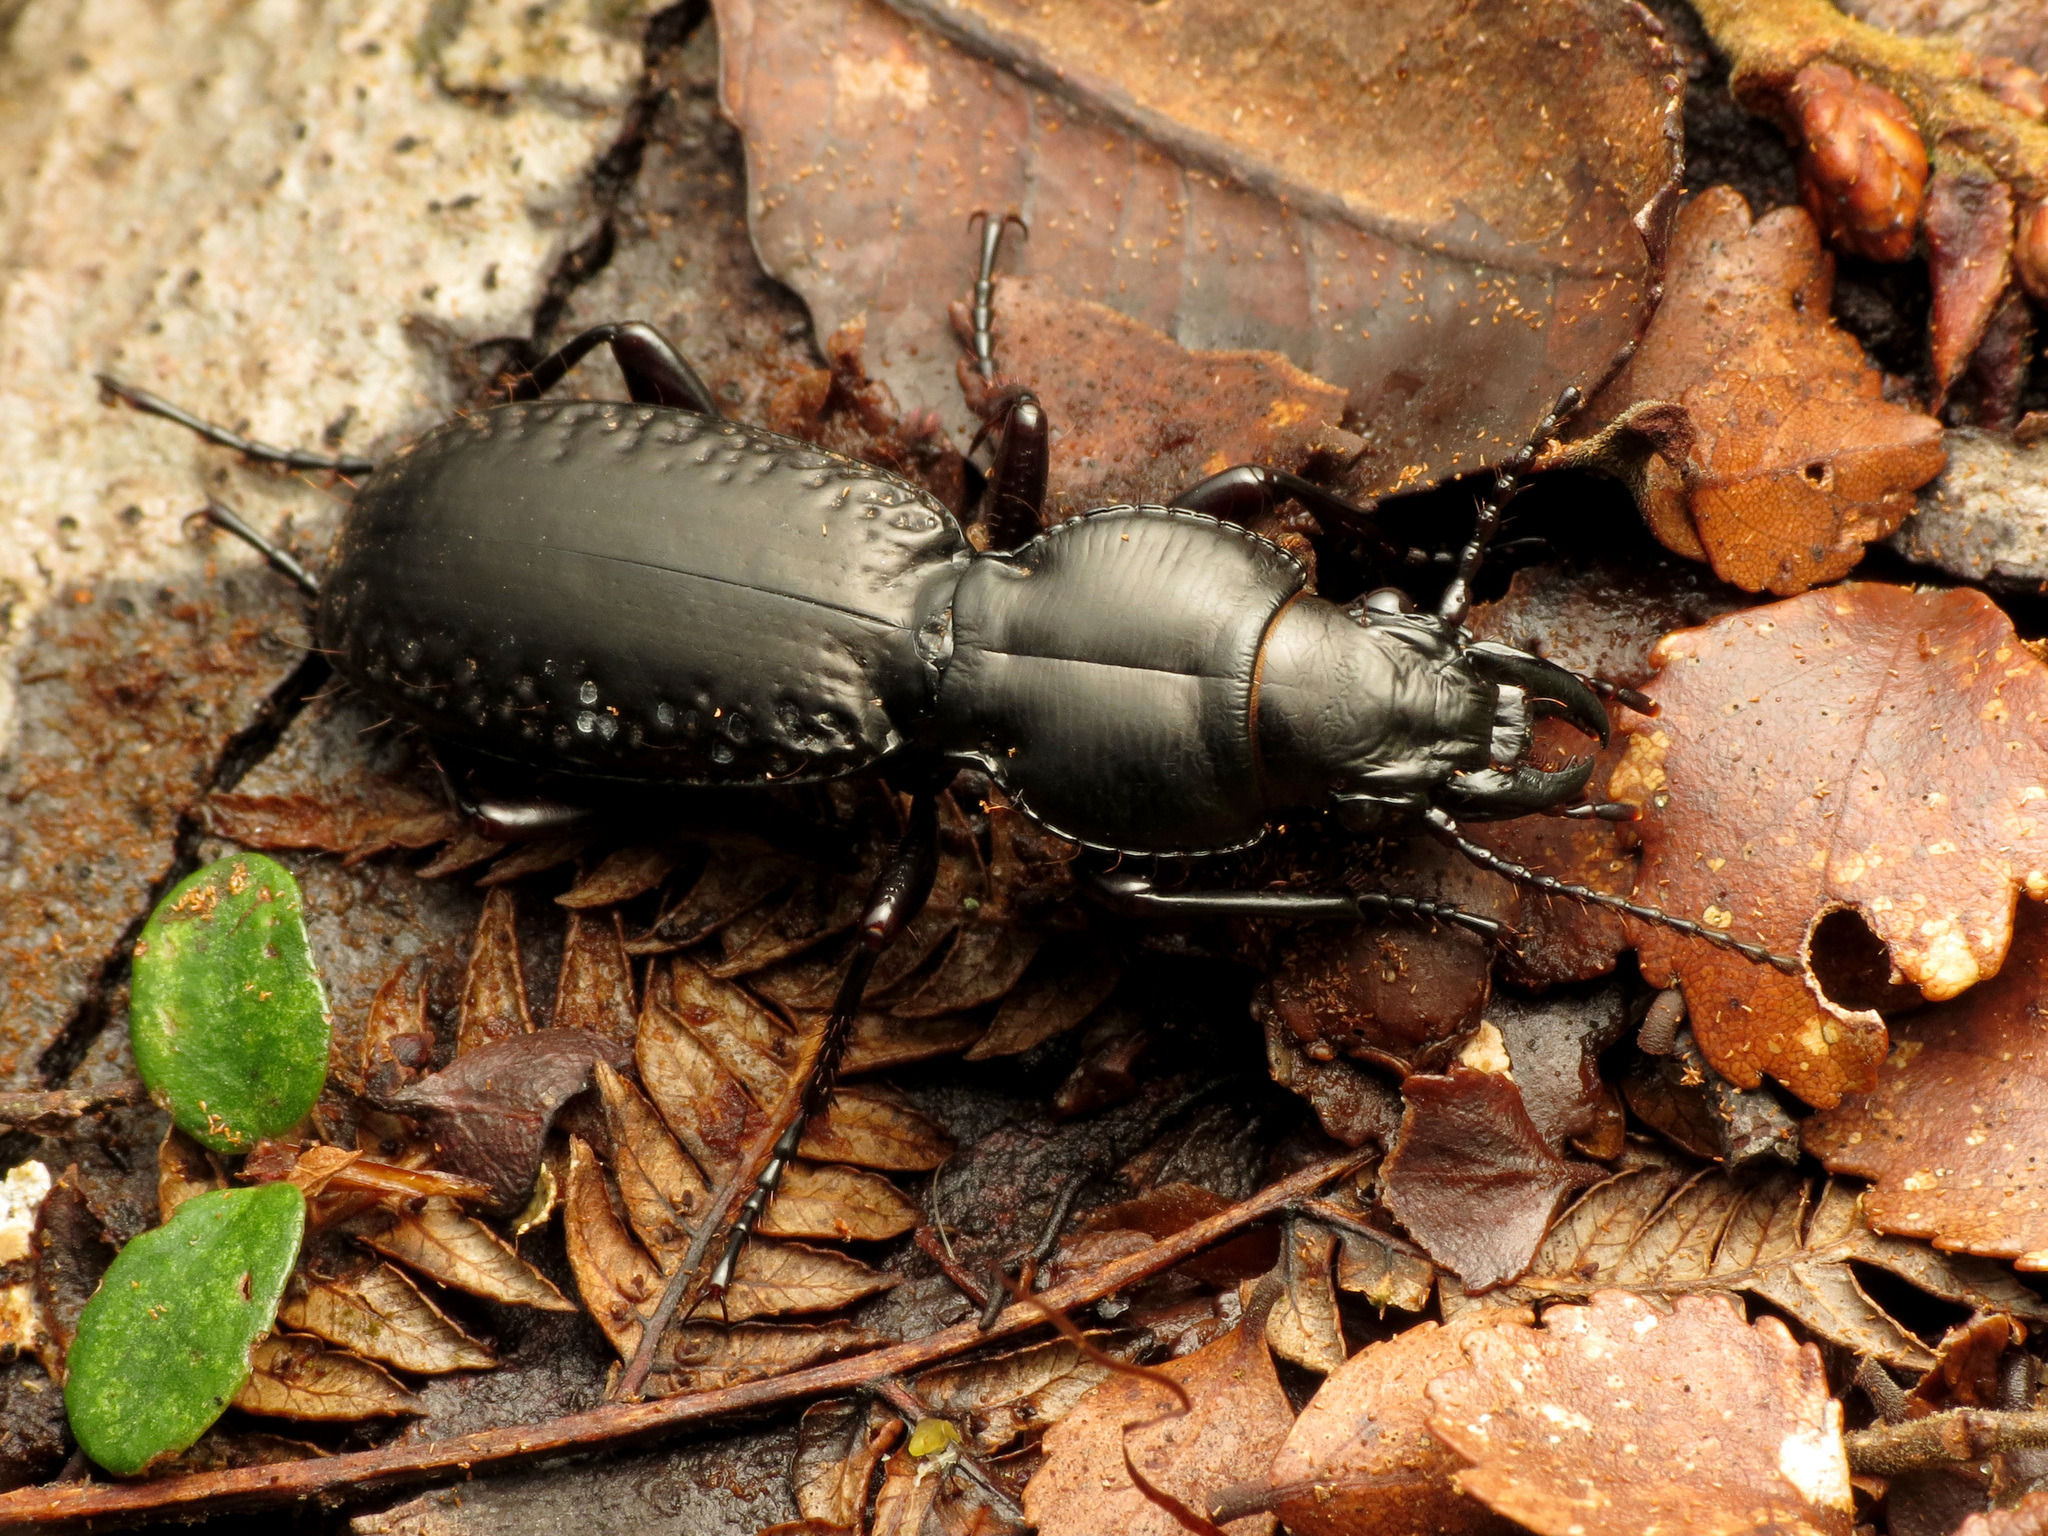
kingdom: Animalia
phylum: Arthropoda
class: Insecta
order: Coleoptera
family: Carabidae
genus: Mecodema
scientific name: Mecodema ducale
